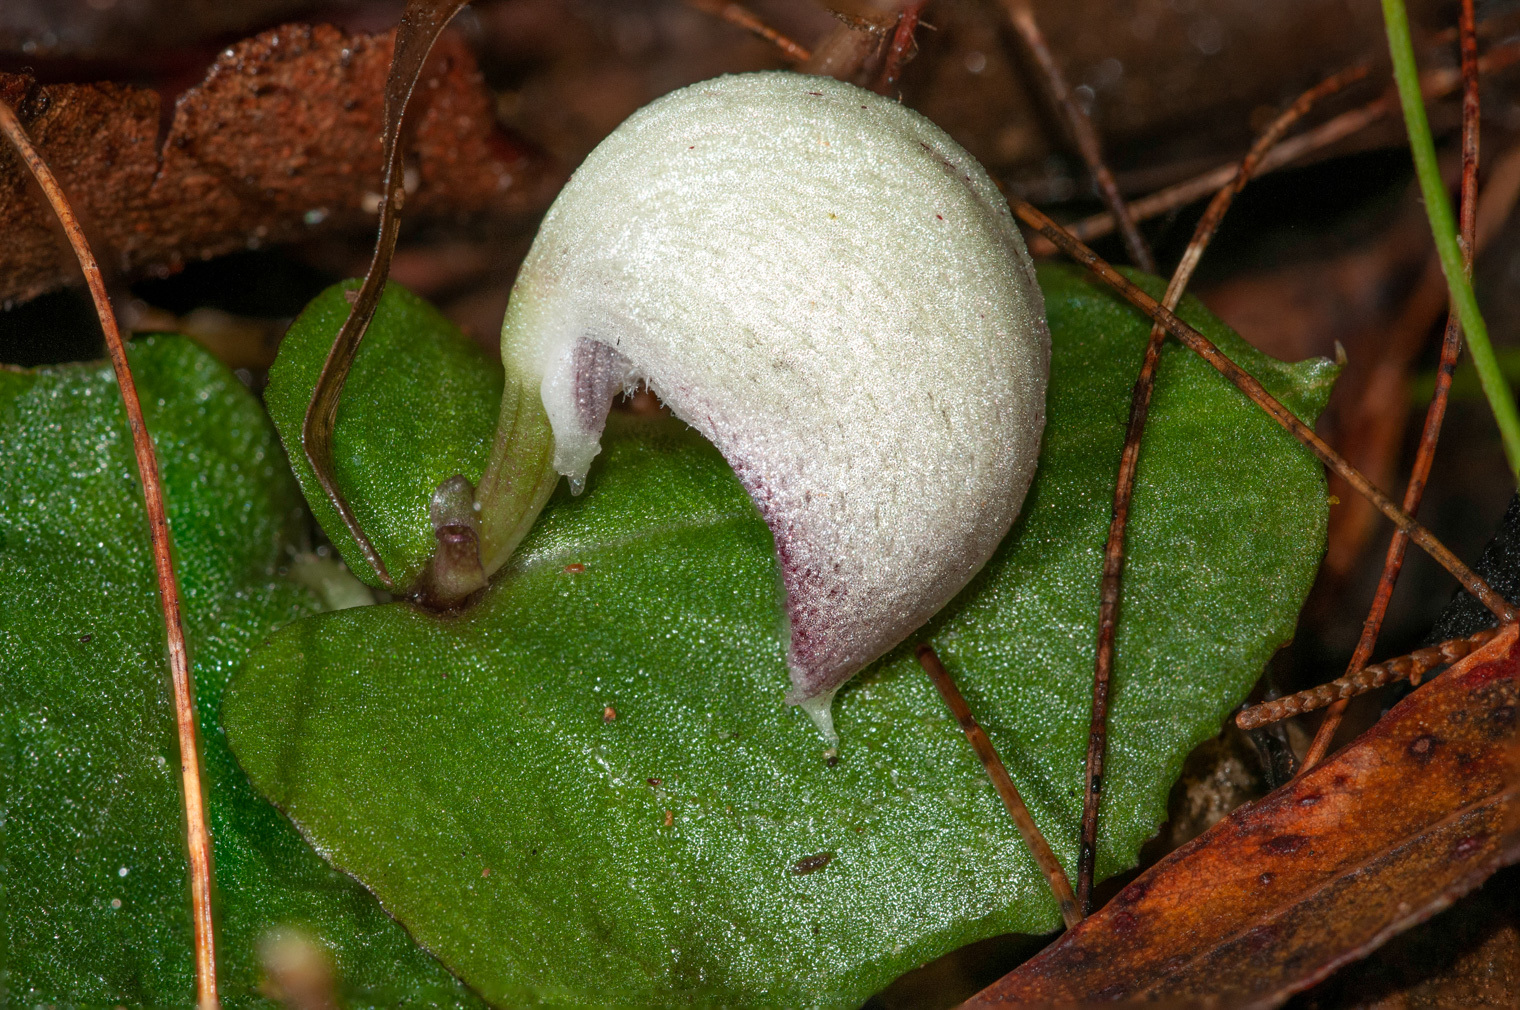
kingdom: Plantae
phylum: Tracheophyta
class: Liliopsida
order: Asparagales
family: Orchidaceae
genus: Corybas
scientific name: Corybas barbarae
